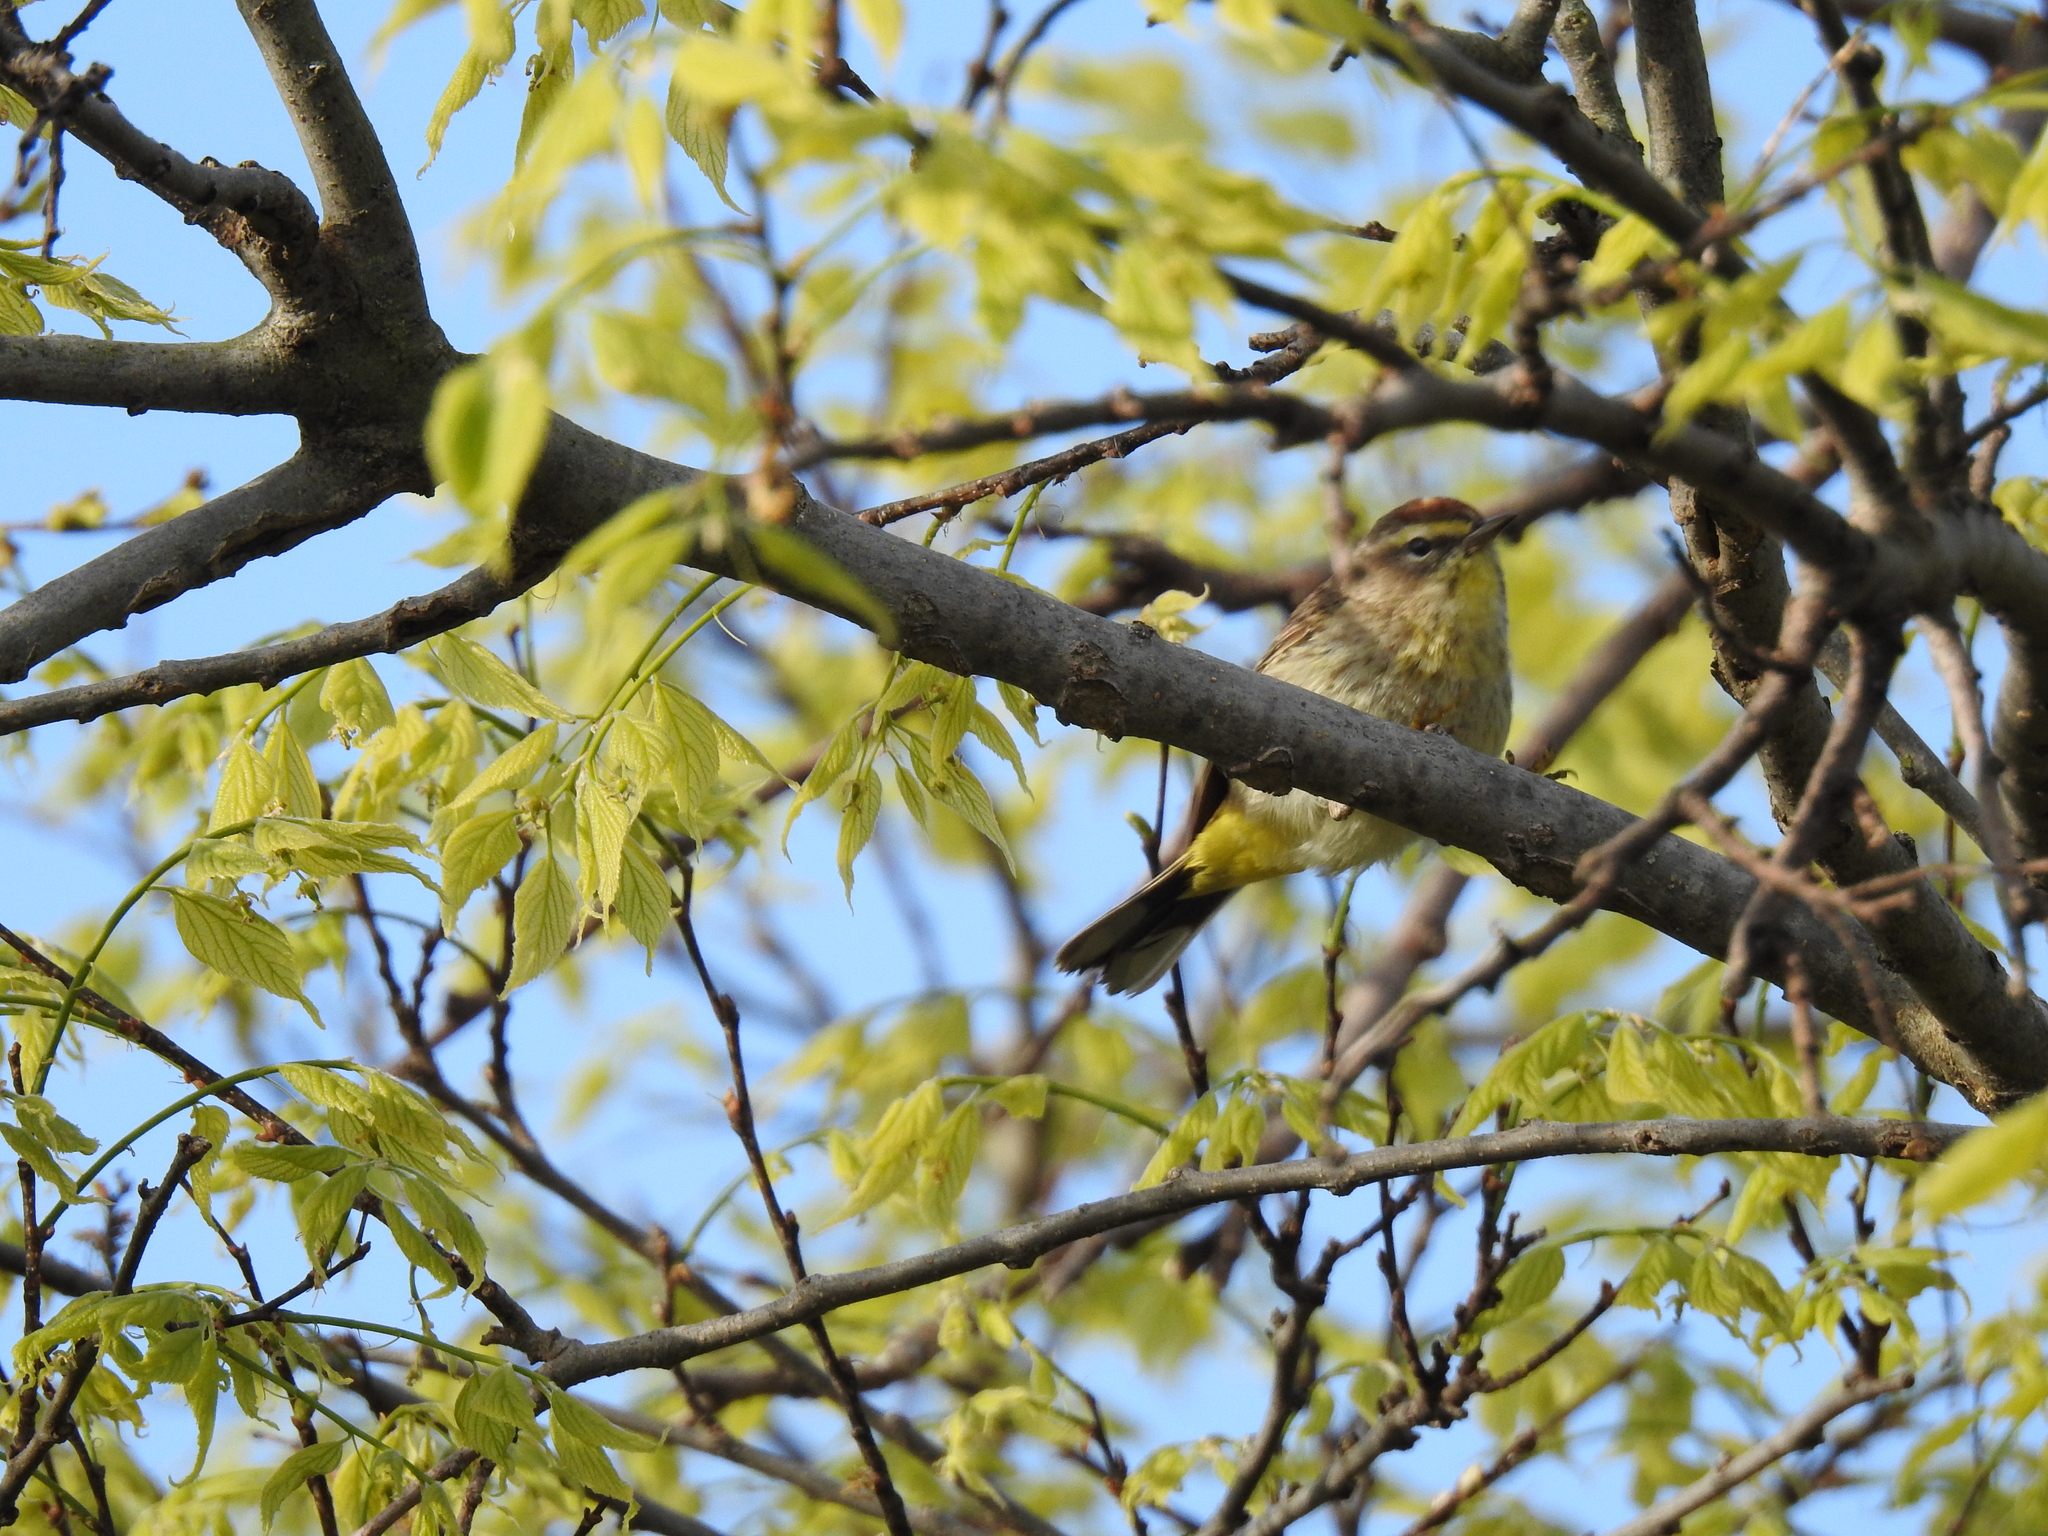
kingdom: Animalia
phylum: Chordata
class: Aves
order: Passeriformes
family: Parulidae
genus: Setophaga
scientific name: Setophaga palmarum
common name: Palm warbler
